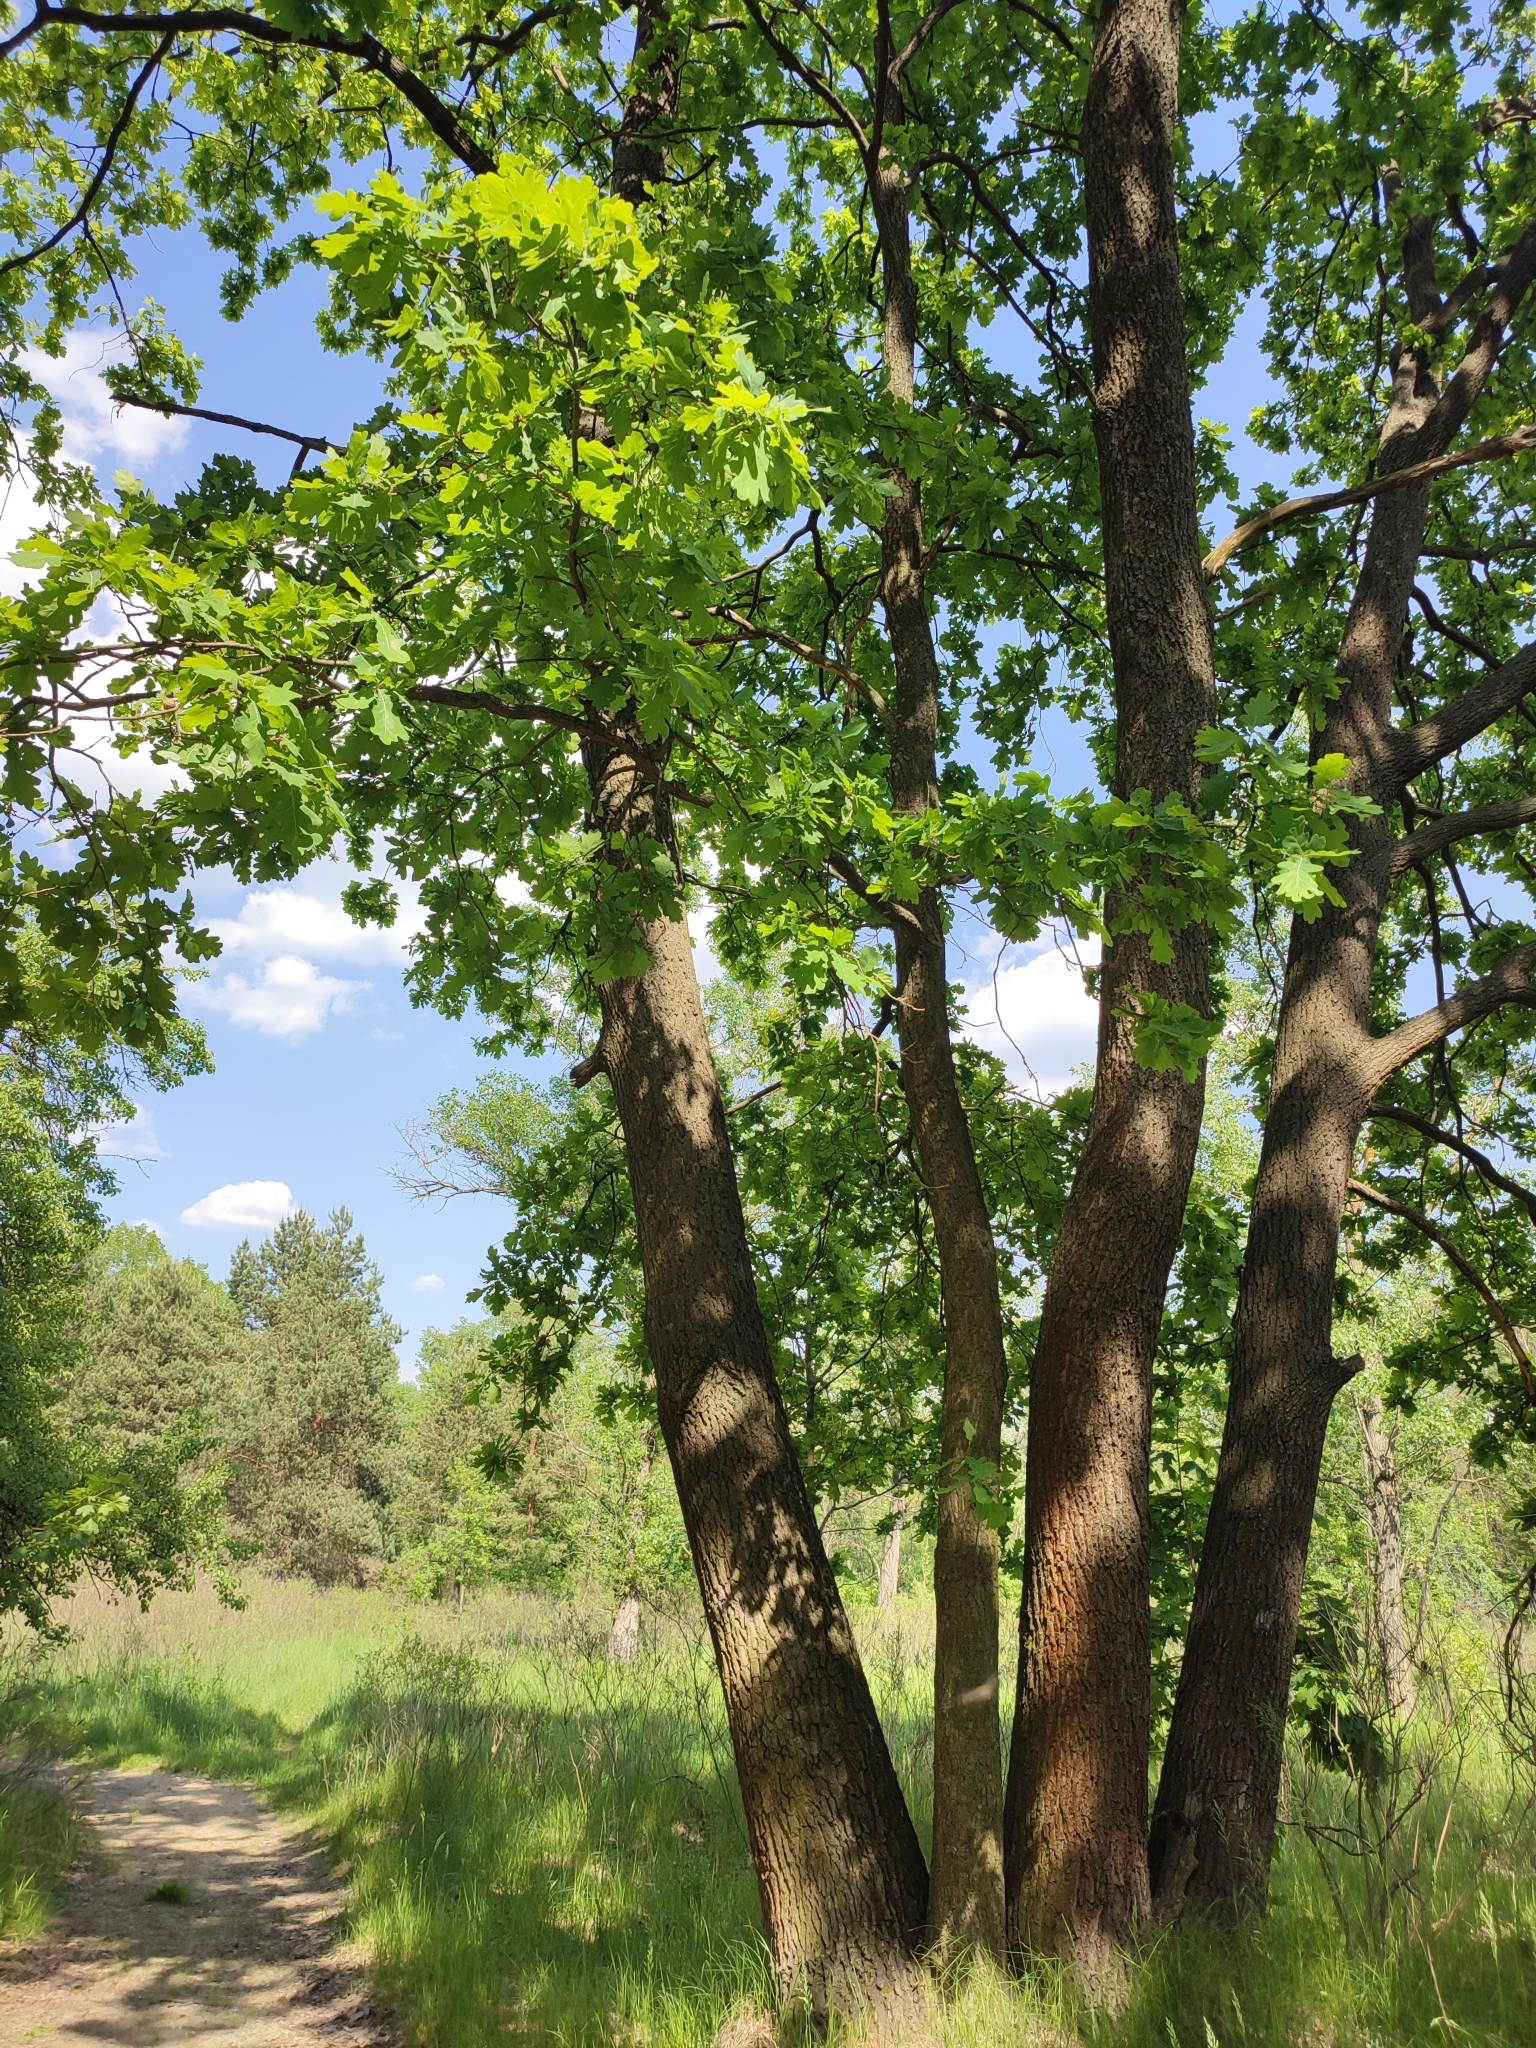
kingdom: Plantae
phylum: Tracheophyta
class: Magnoliopsida
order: Fagales
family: Fagaceae
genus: Quercus
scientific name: Quercus robur
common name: Pedunculate oak
